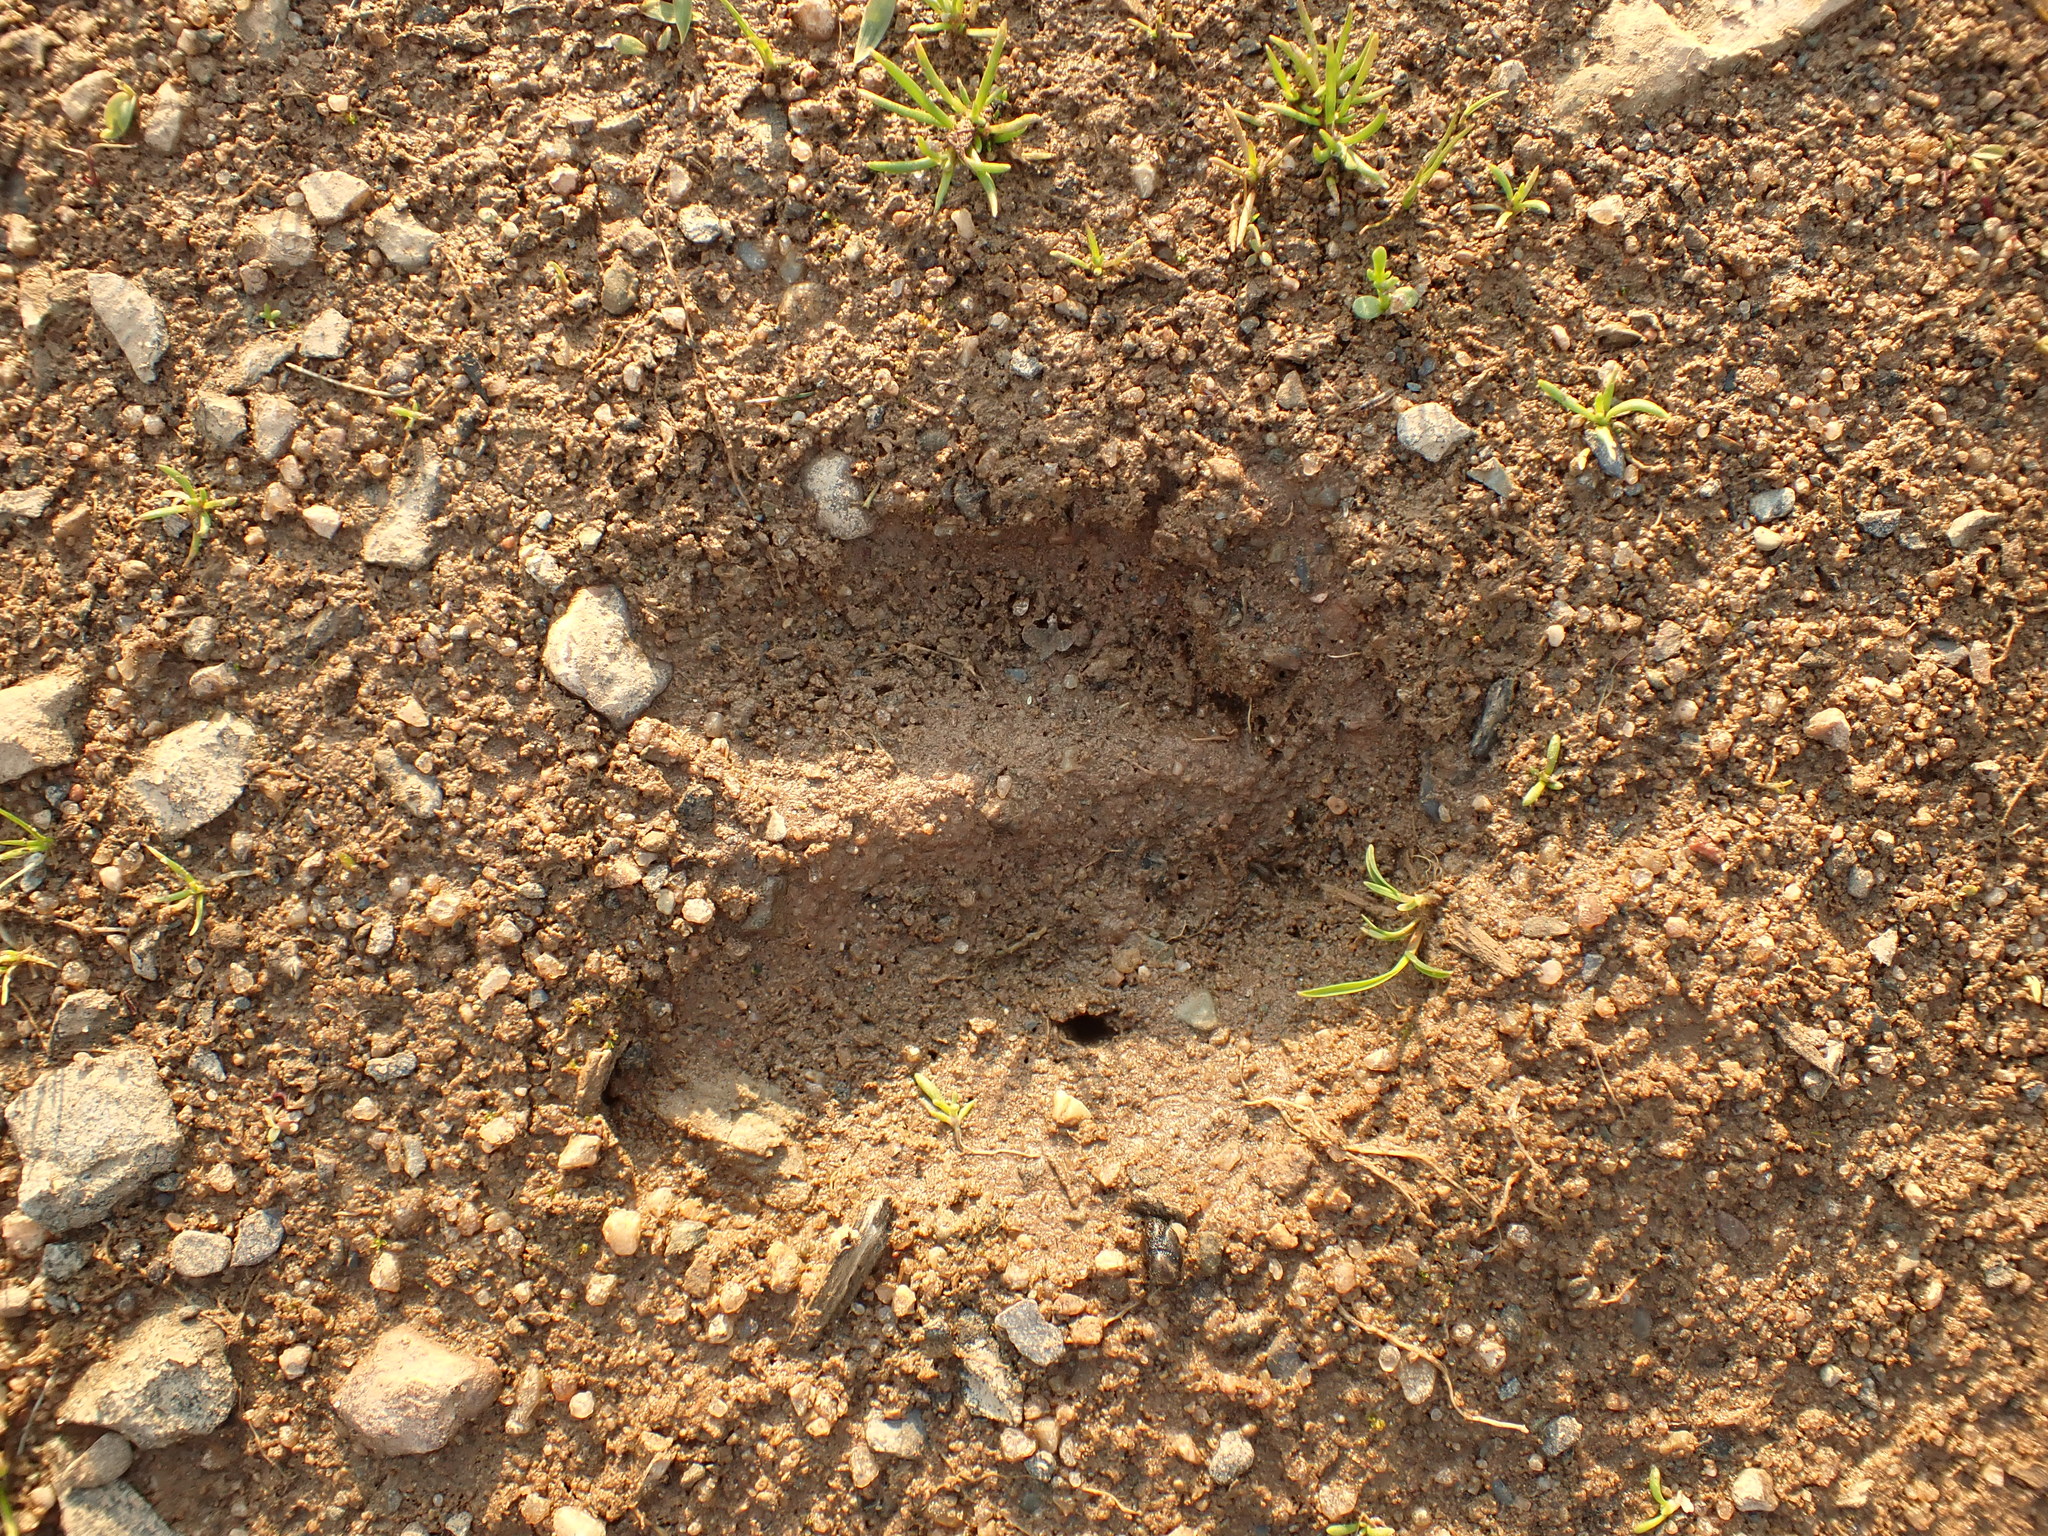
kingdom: Animalia
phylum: Chordata
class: Mammalia
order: Artiodactyla
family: Cervidae
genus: Odocoileus
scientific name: Odocoileus virginianus
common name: White-tailed deer
